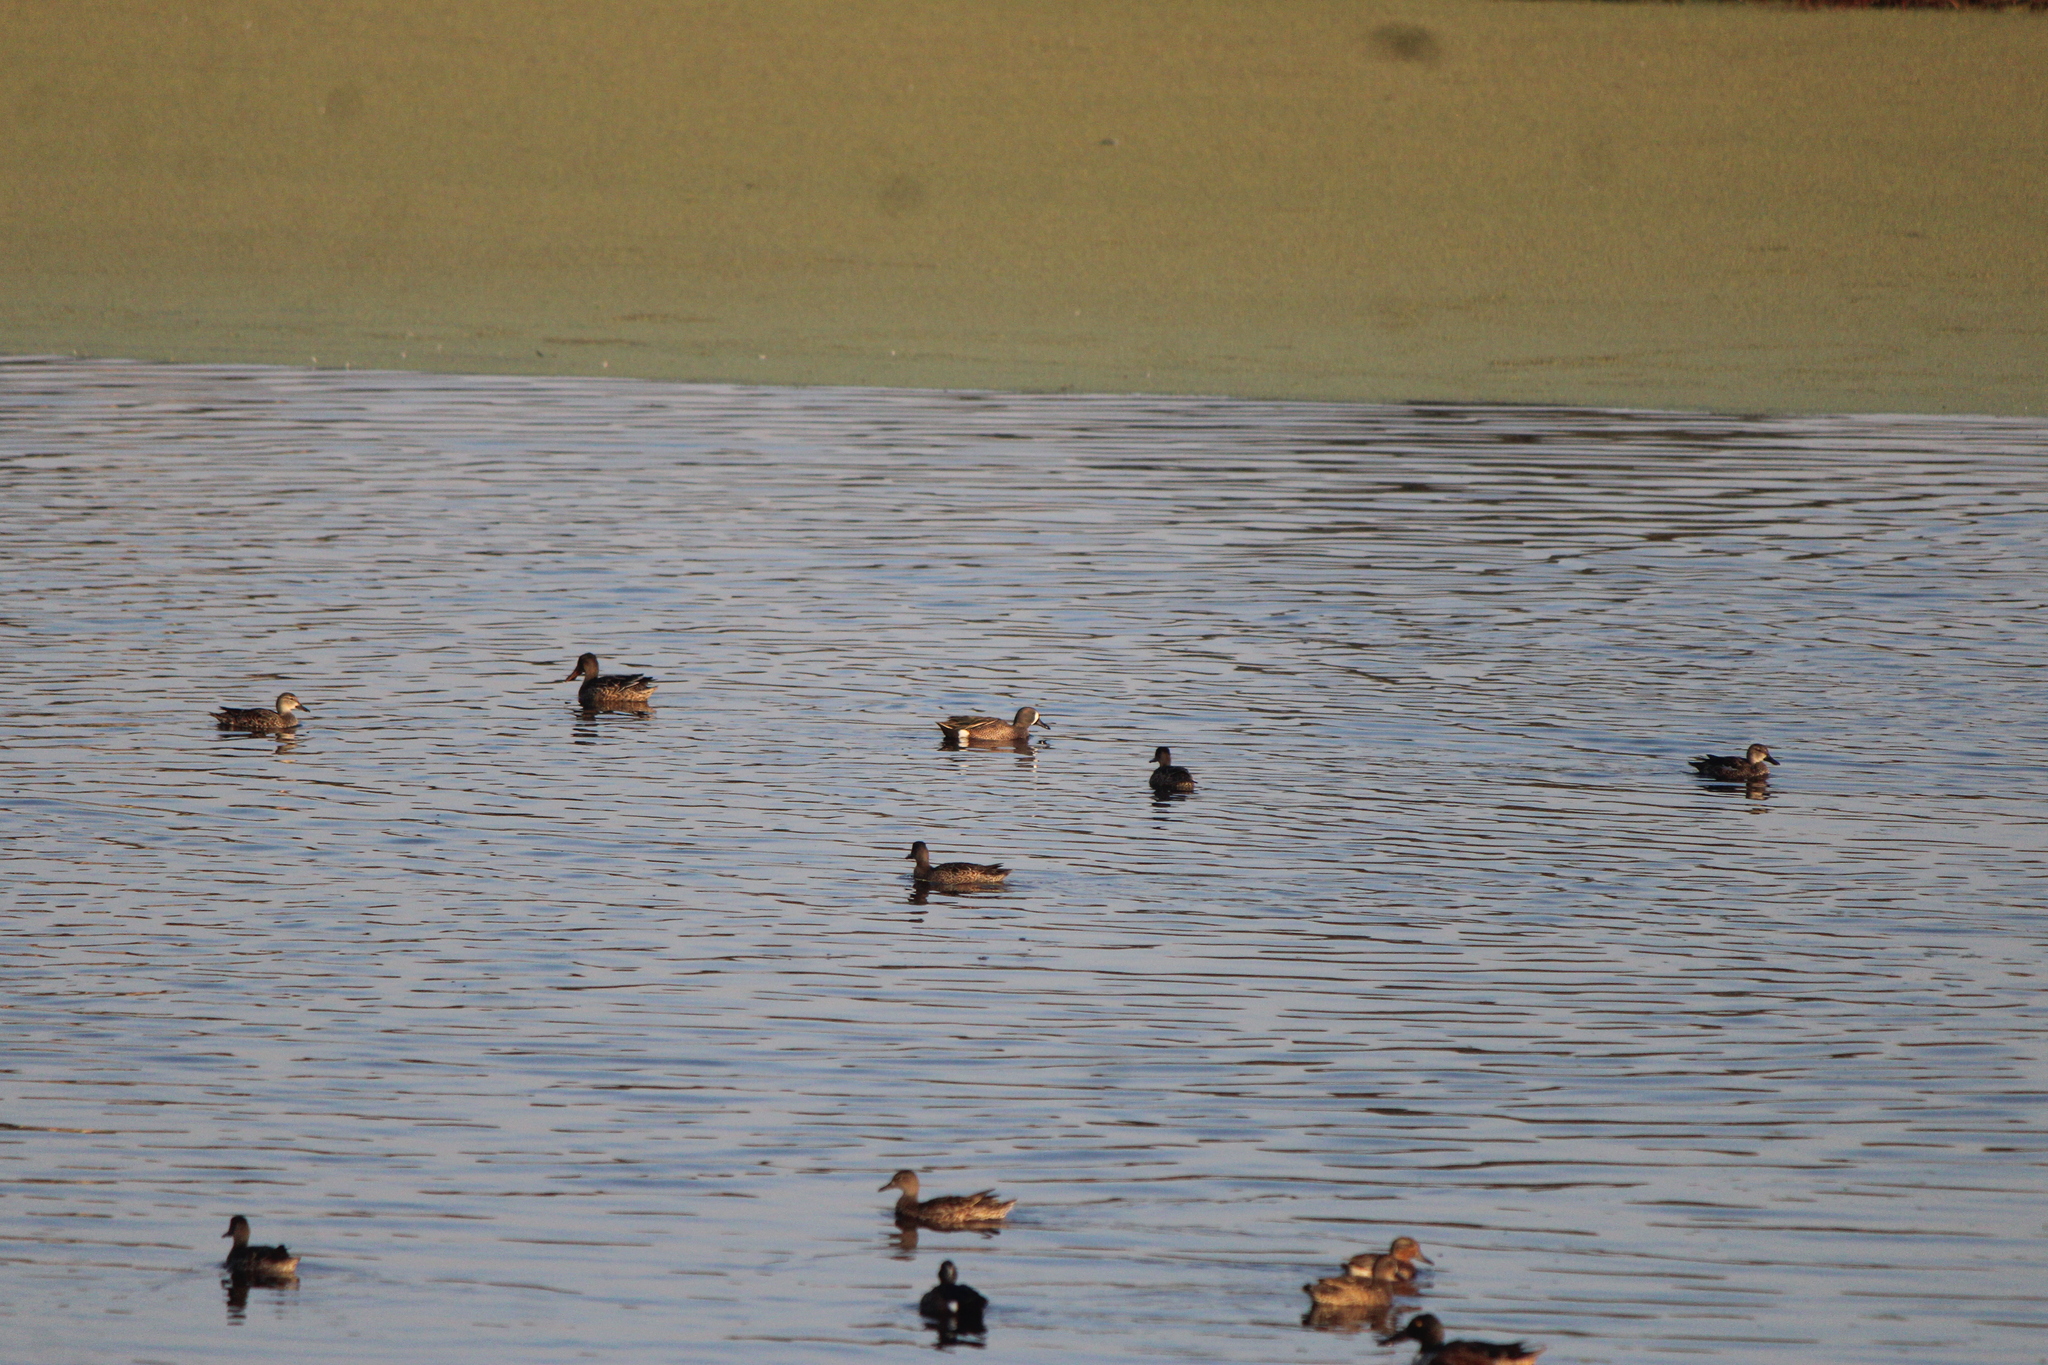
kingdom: Animalia
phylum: Chordata
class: Aves
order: Anseriformes
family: Anatidae
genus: Spatula
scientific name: Spatula discors
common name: Blue-winged teal
